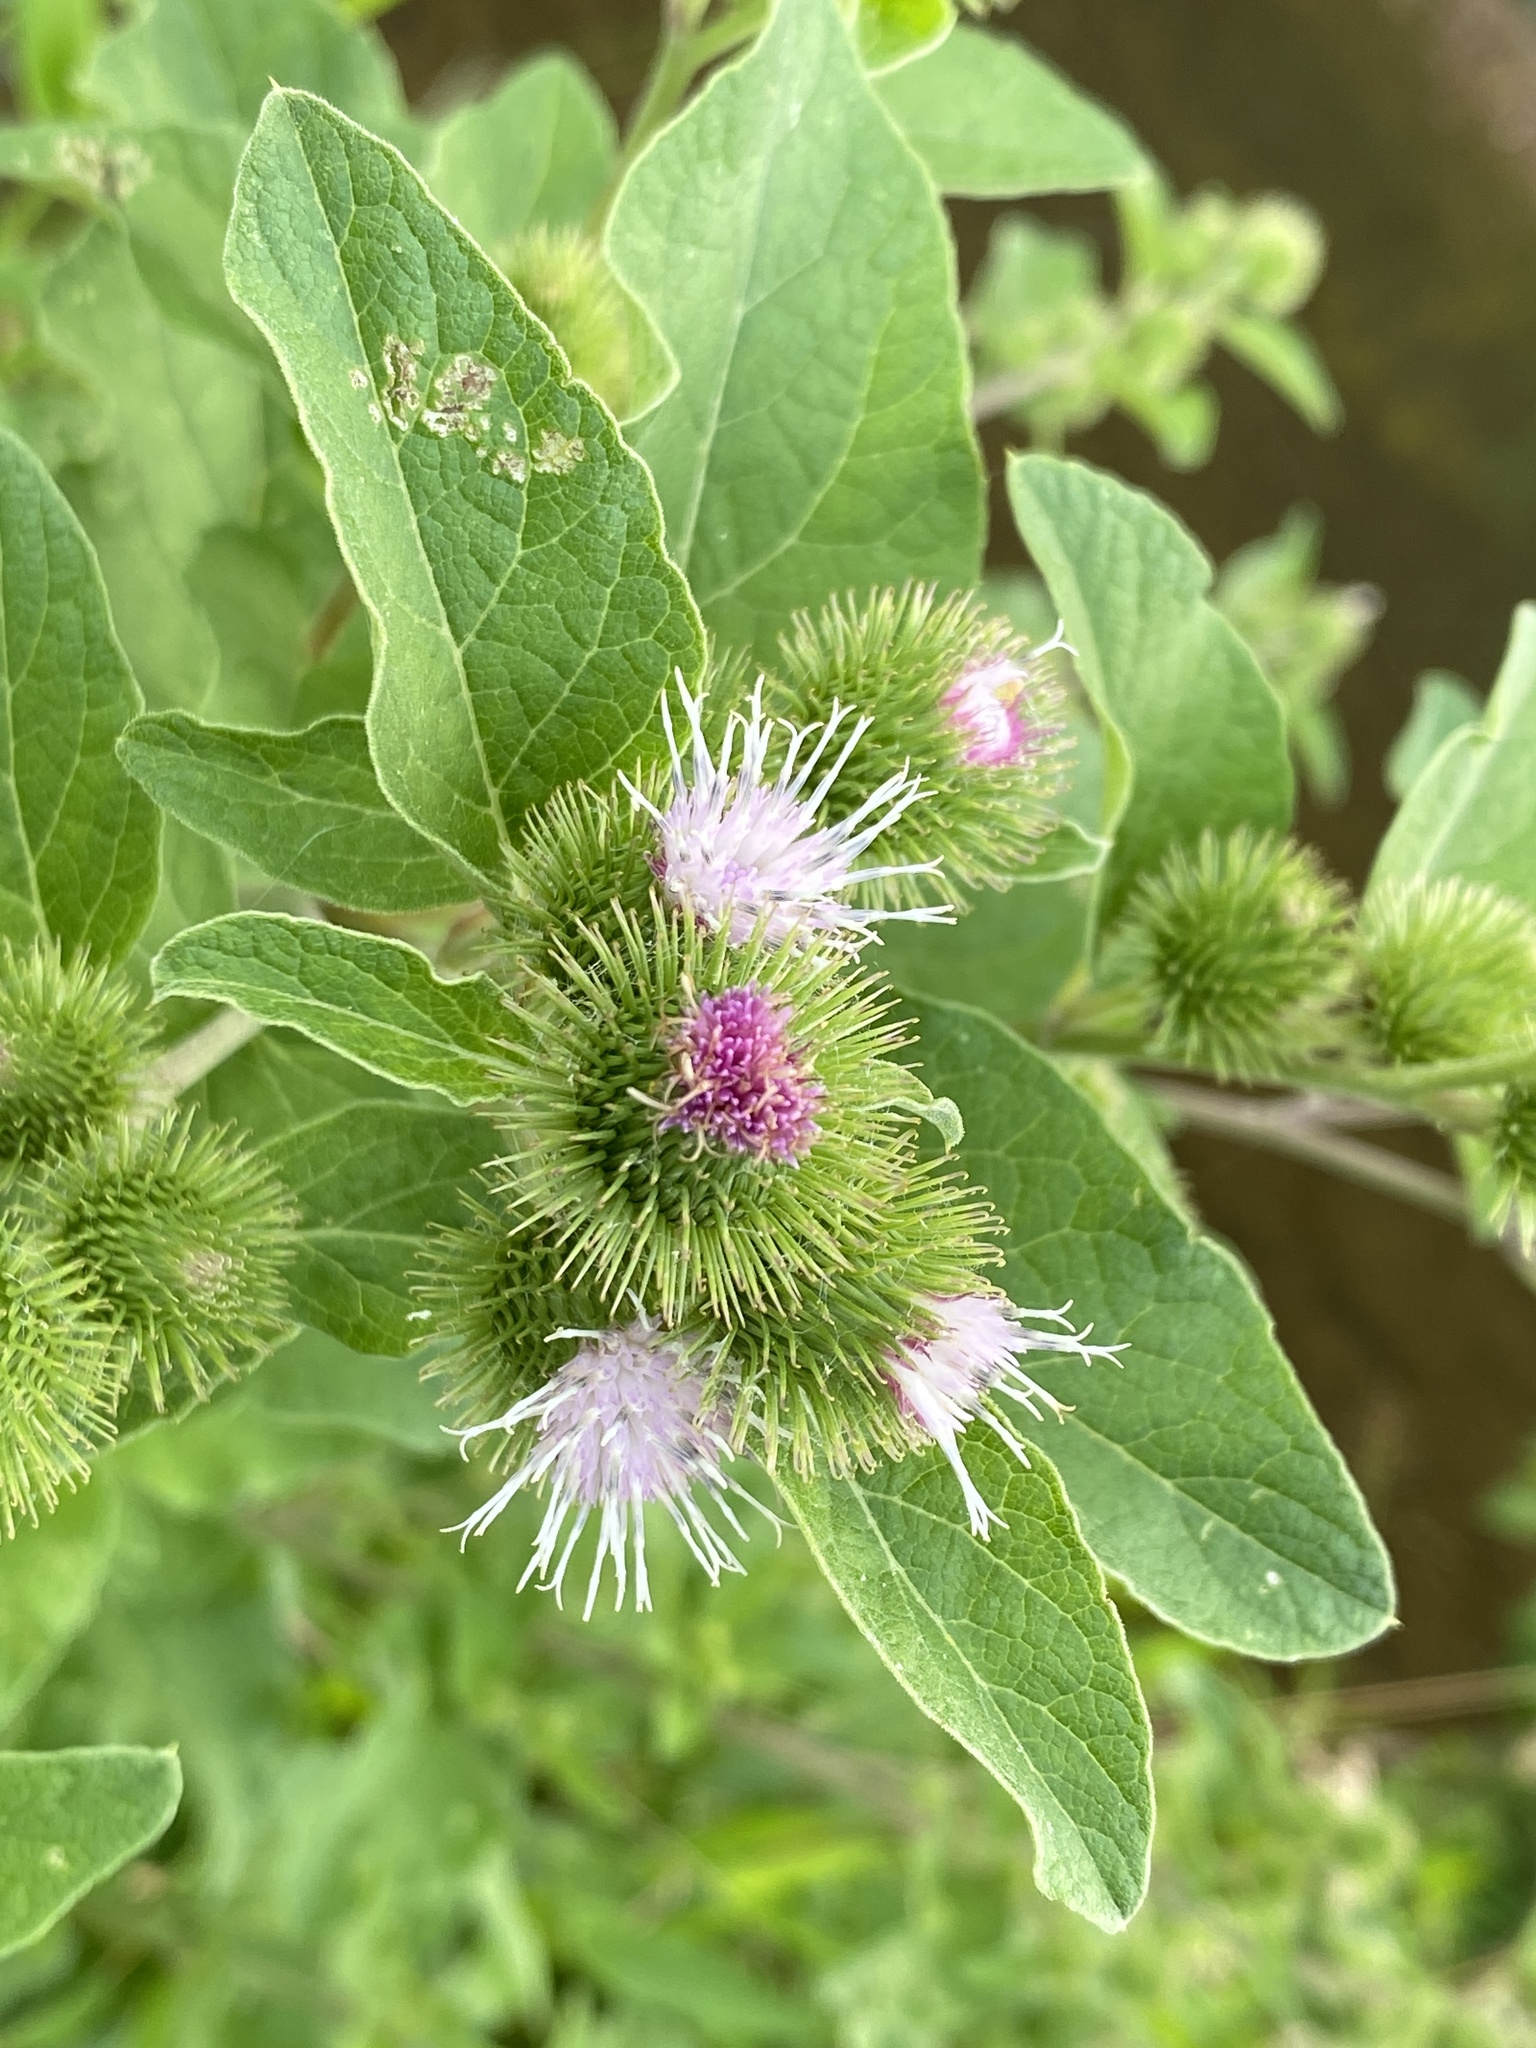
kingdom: Plantae
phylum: Tracheophyta
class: Magnoliopsida
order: Asterales
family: Asteraceae
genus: Arctium
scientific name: Arctium minus
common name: Lesser burdock
